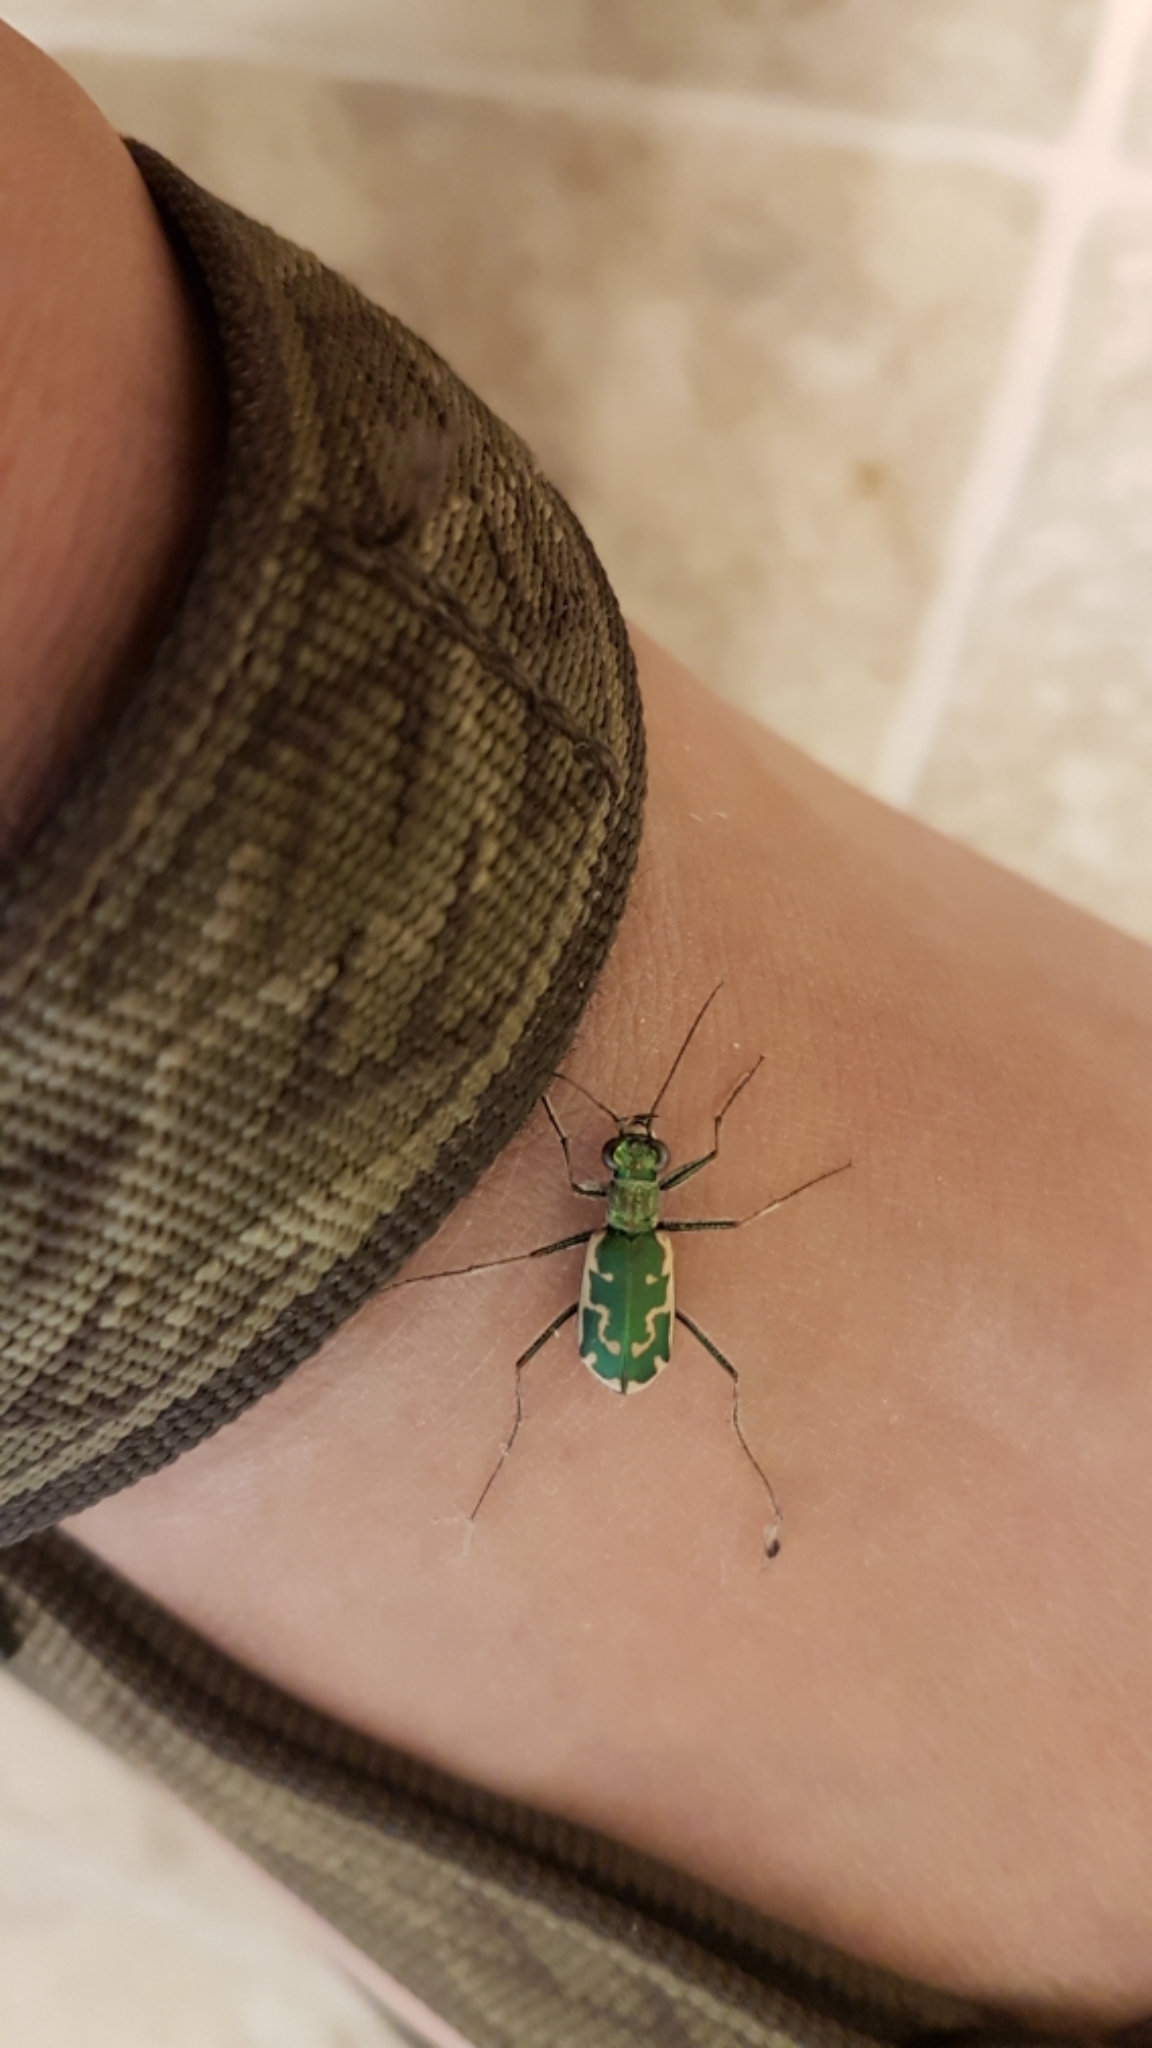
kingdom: Animalia
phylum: Arthropoda
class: Insecta
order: Coleoptera
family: Carabidae
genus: Ellipsoptera
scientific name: Ellipsoptera rubicunda
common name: Aridland tiger beetle
